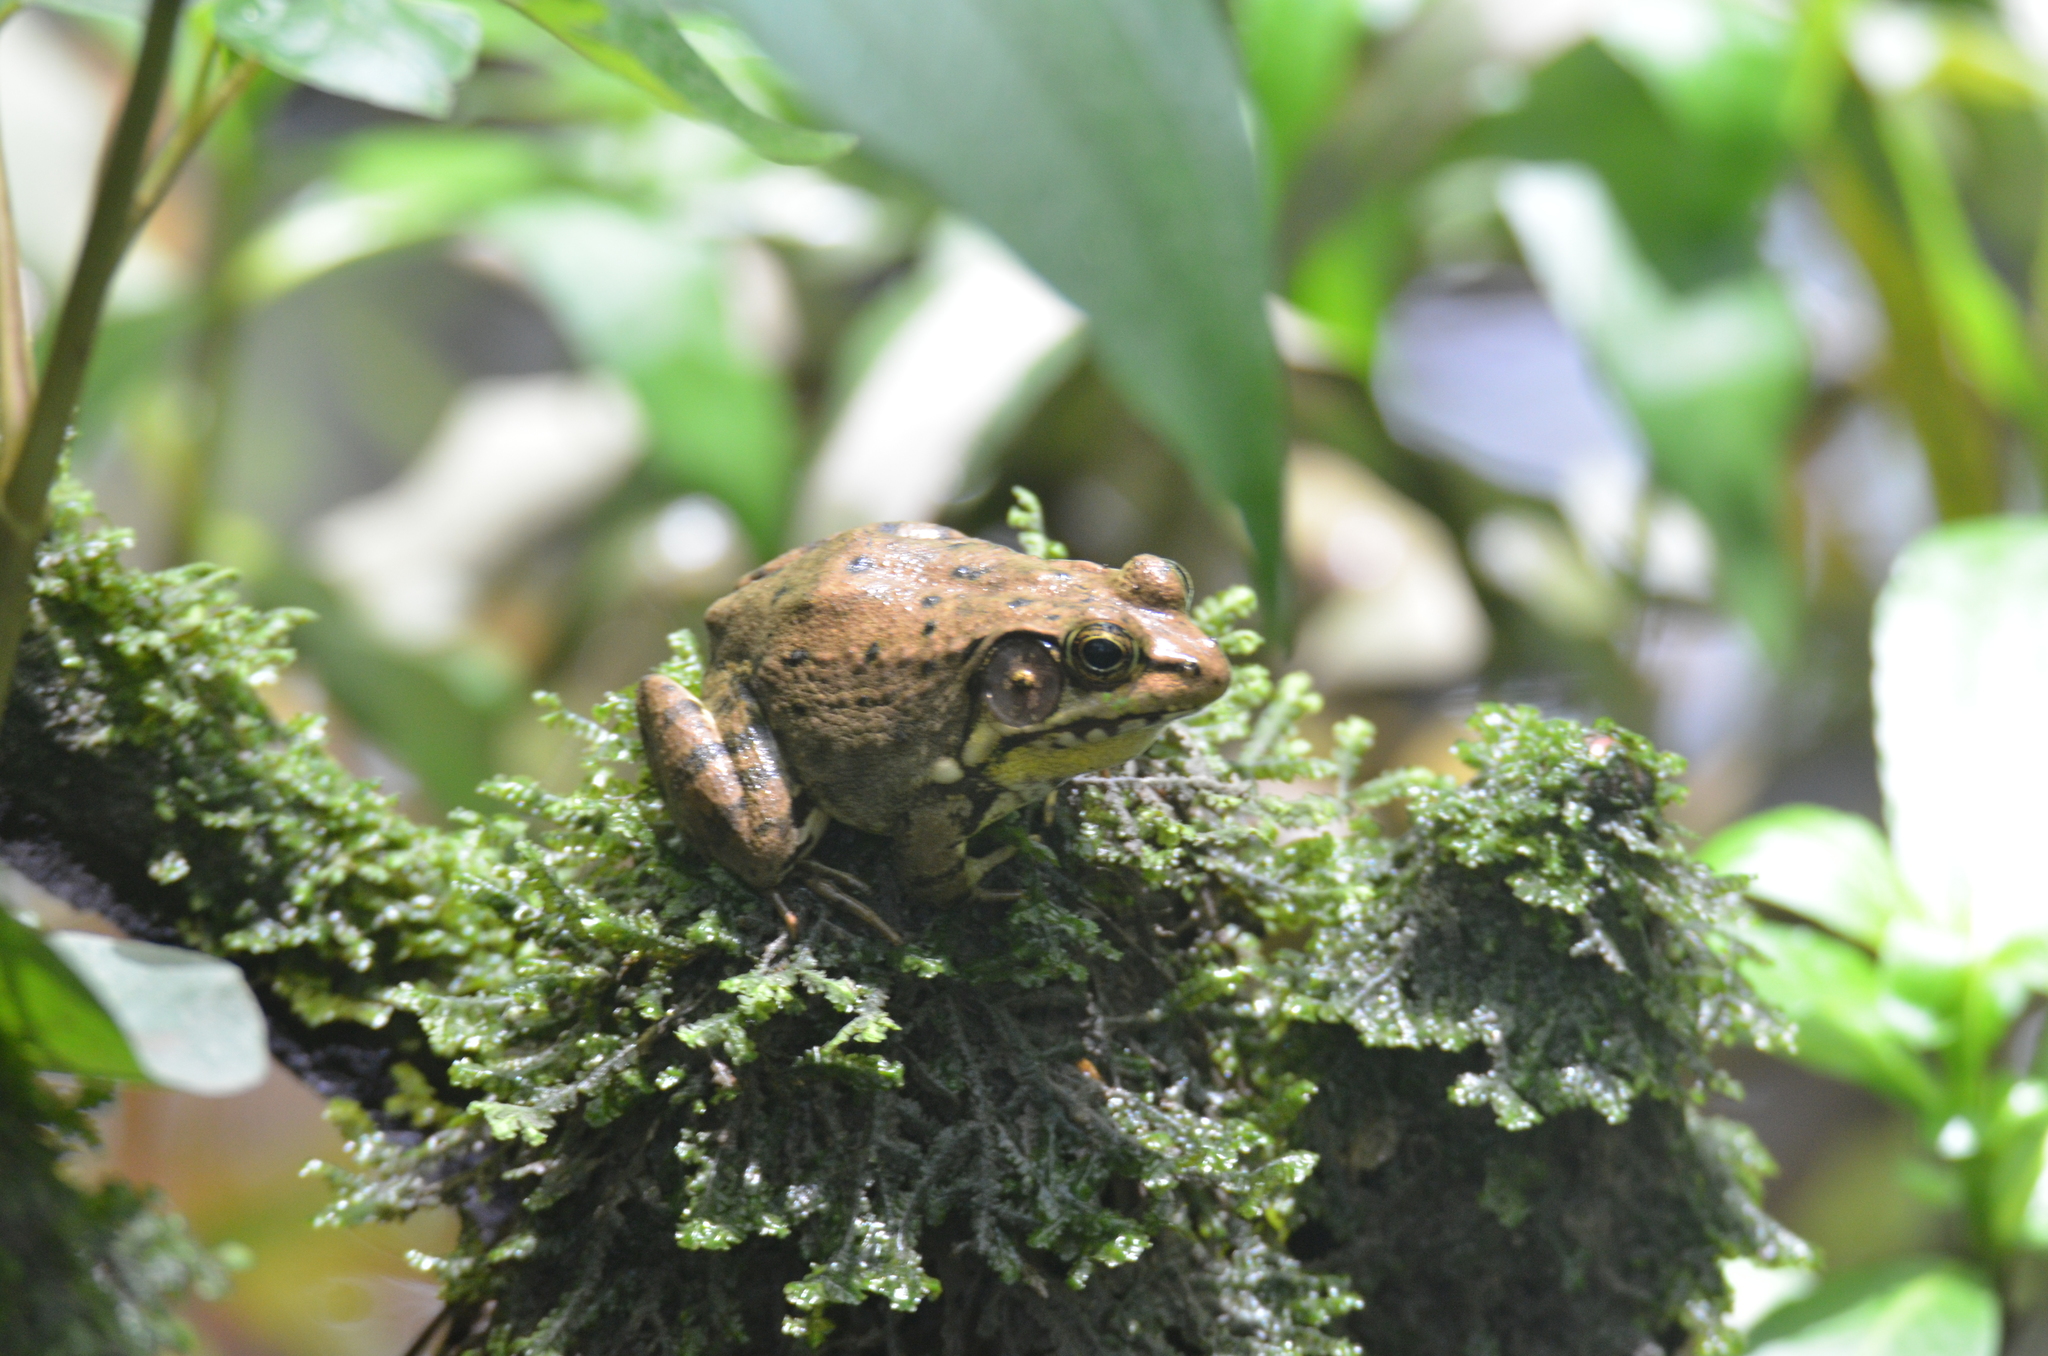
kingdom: Animalia
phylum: Chordata
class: Amphibia
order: Anura
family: Ranidae
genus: Lithobates
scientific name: Lithobates clamitans
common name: Green frog
